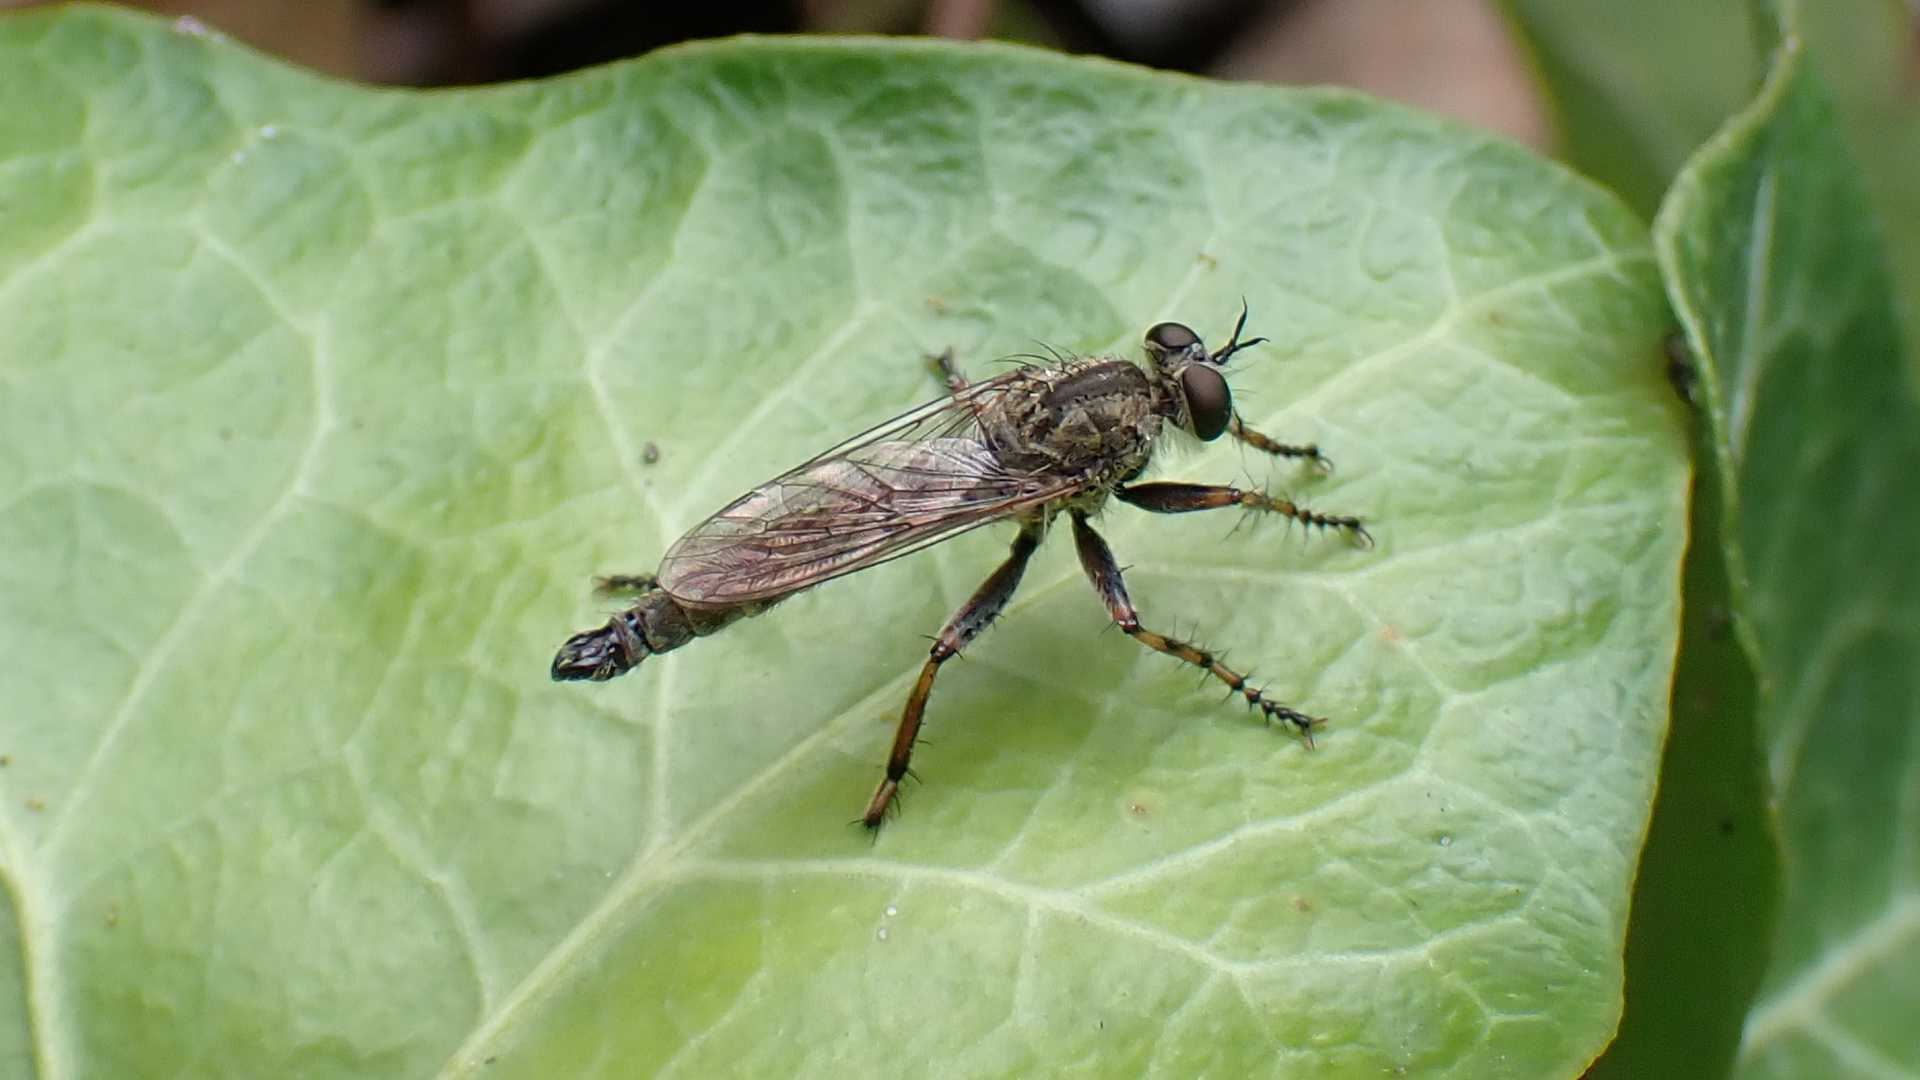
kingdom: Animalia
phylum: Arthropoda
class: Insecta
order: Diptera
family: Asilidae
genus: Epitriptus
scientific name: Epitriptus cingulatus
